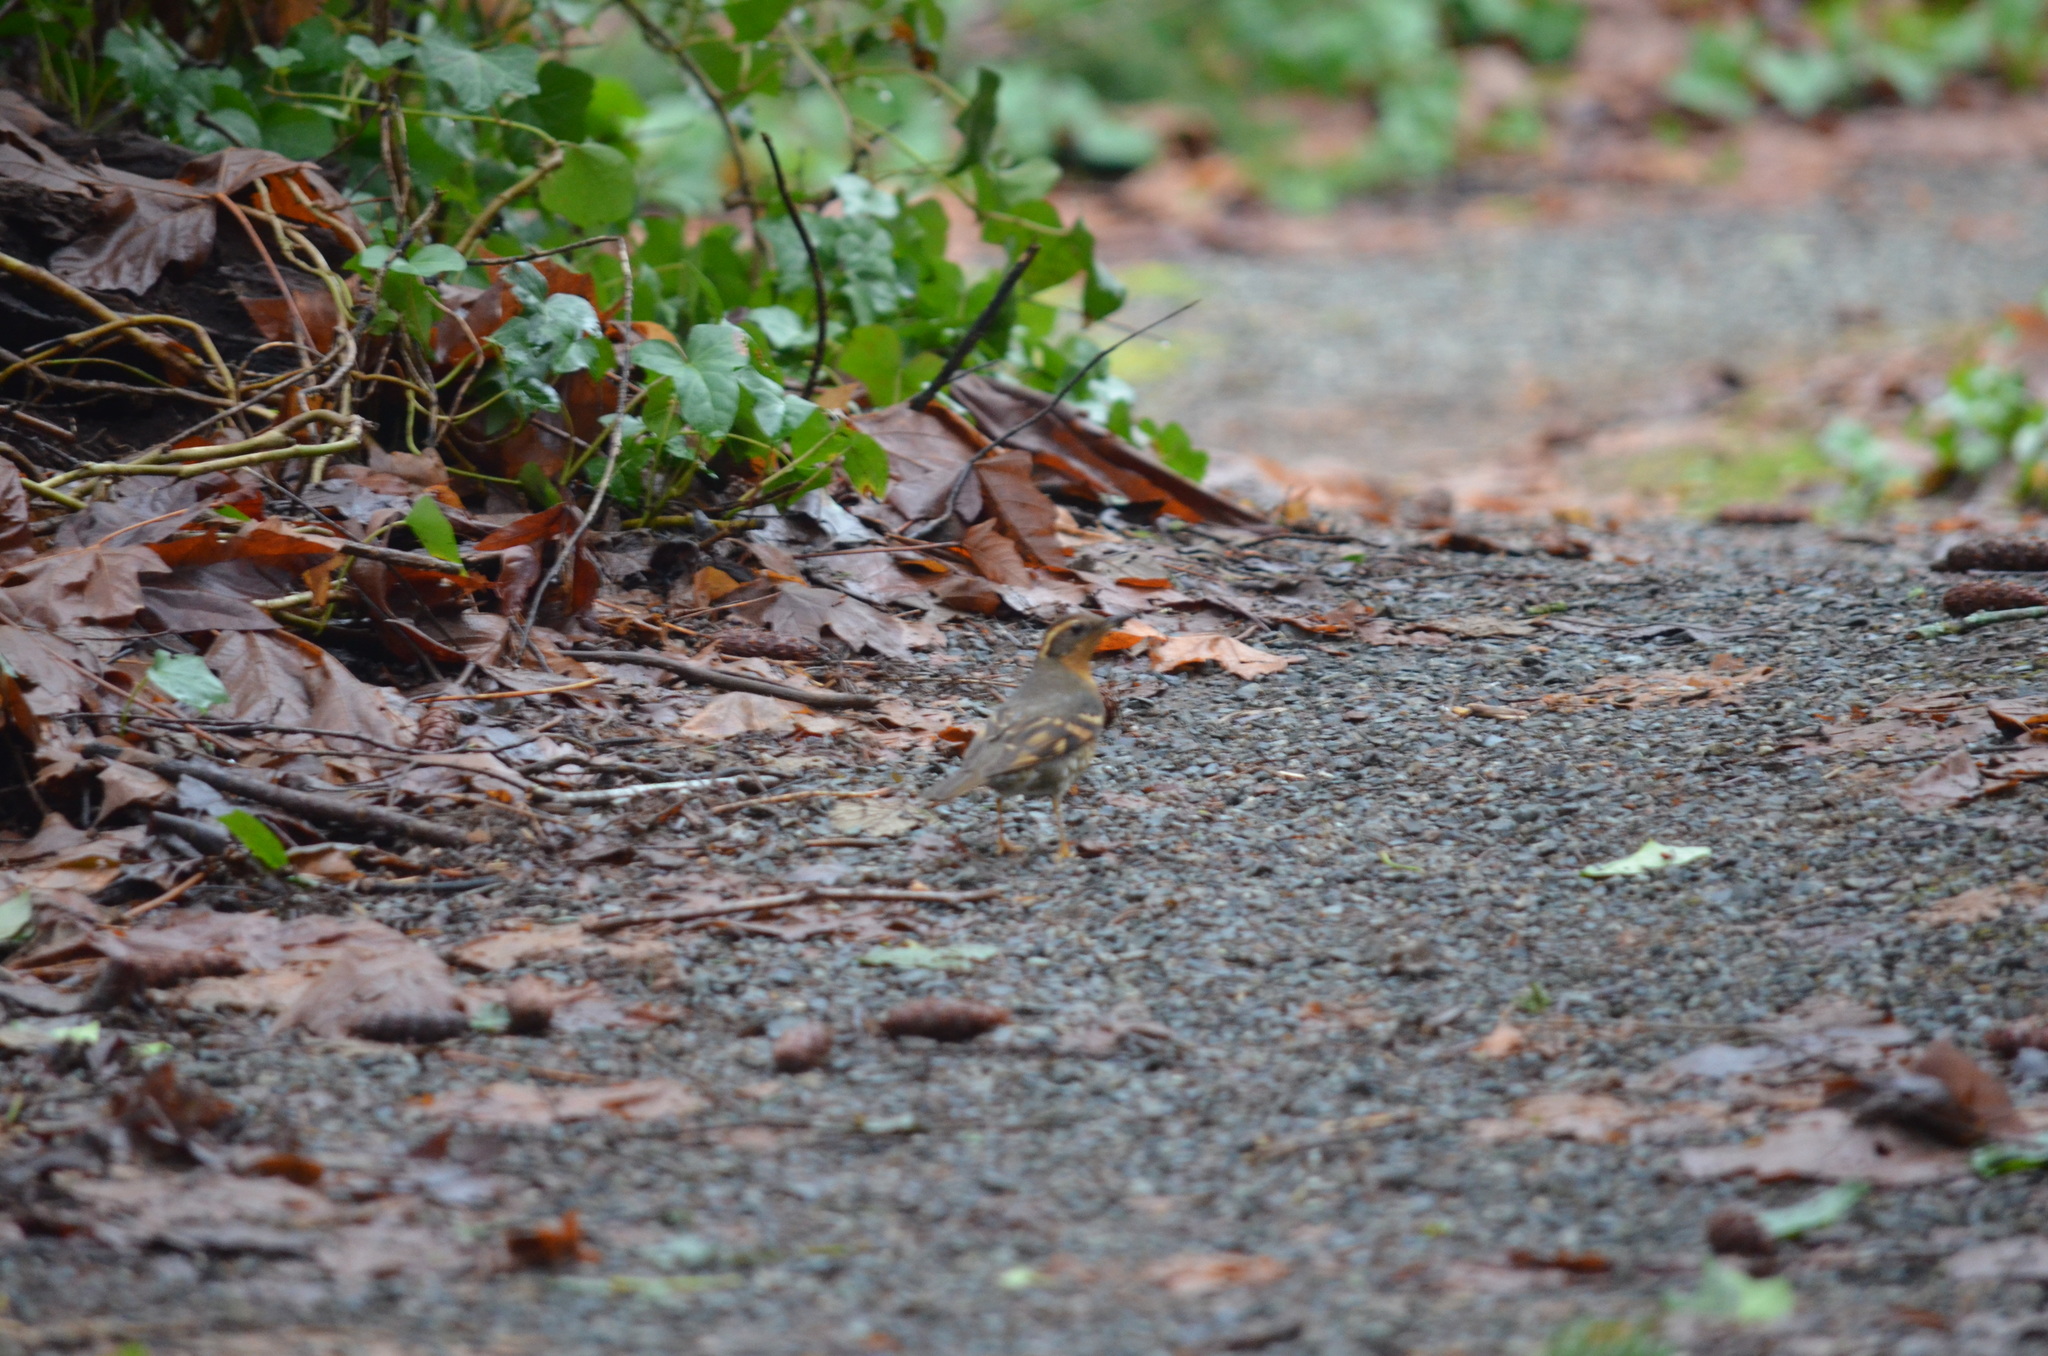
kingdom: Animalia
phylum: Chordata
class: Aves
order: Passeriformes
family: Turdidae
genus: Ixoreus
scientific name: Ixoreus naevius
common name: Varied thrush
